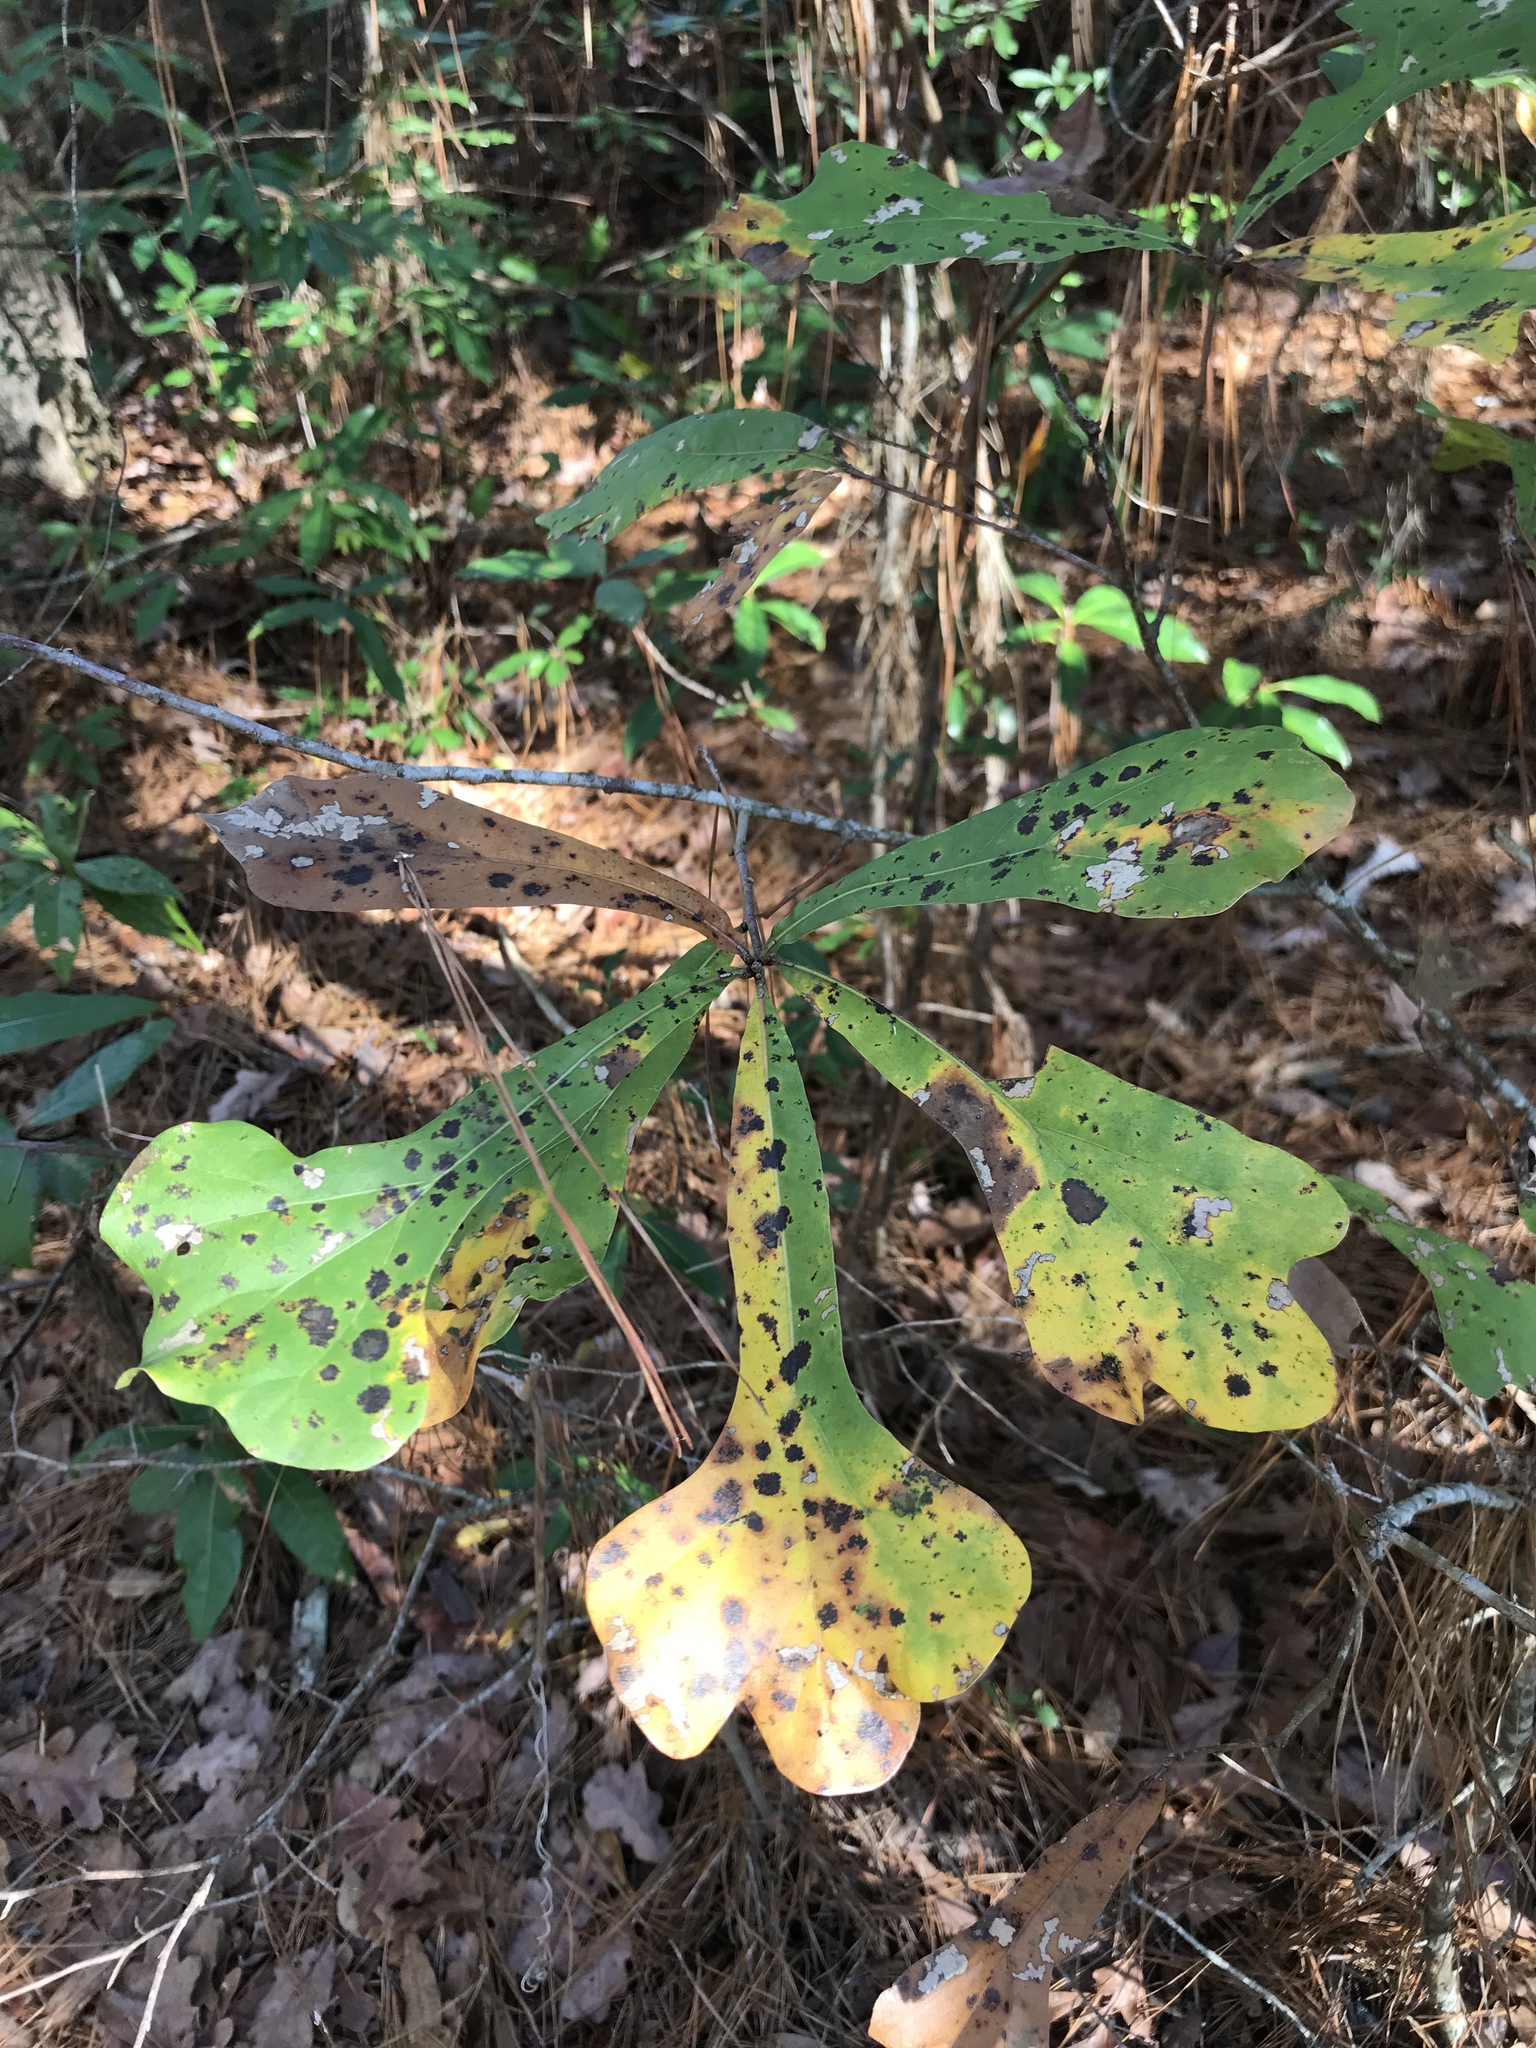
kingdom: Plantae
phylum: Tracheophyta
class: Magnoliopsida
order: Fagales
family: Fagaceae
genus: Quercus
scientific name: Quercus nigra
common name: Water oak
